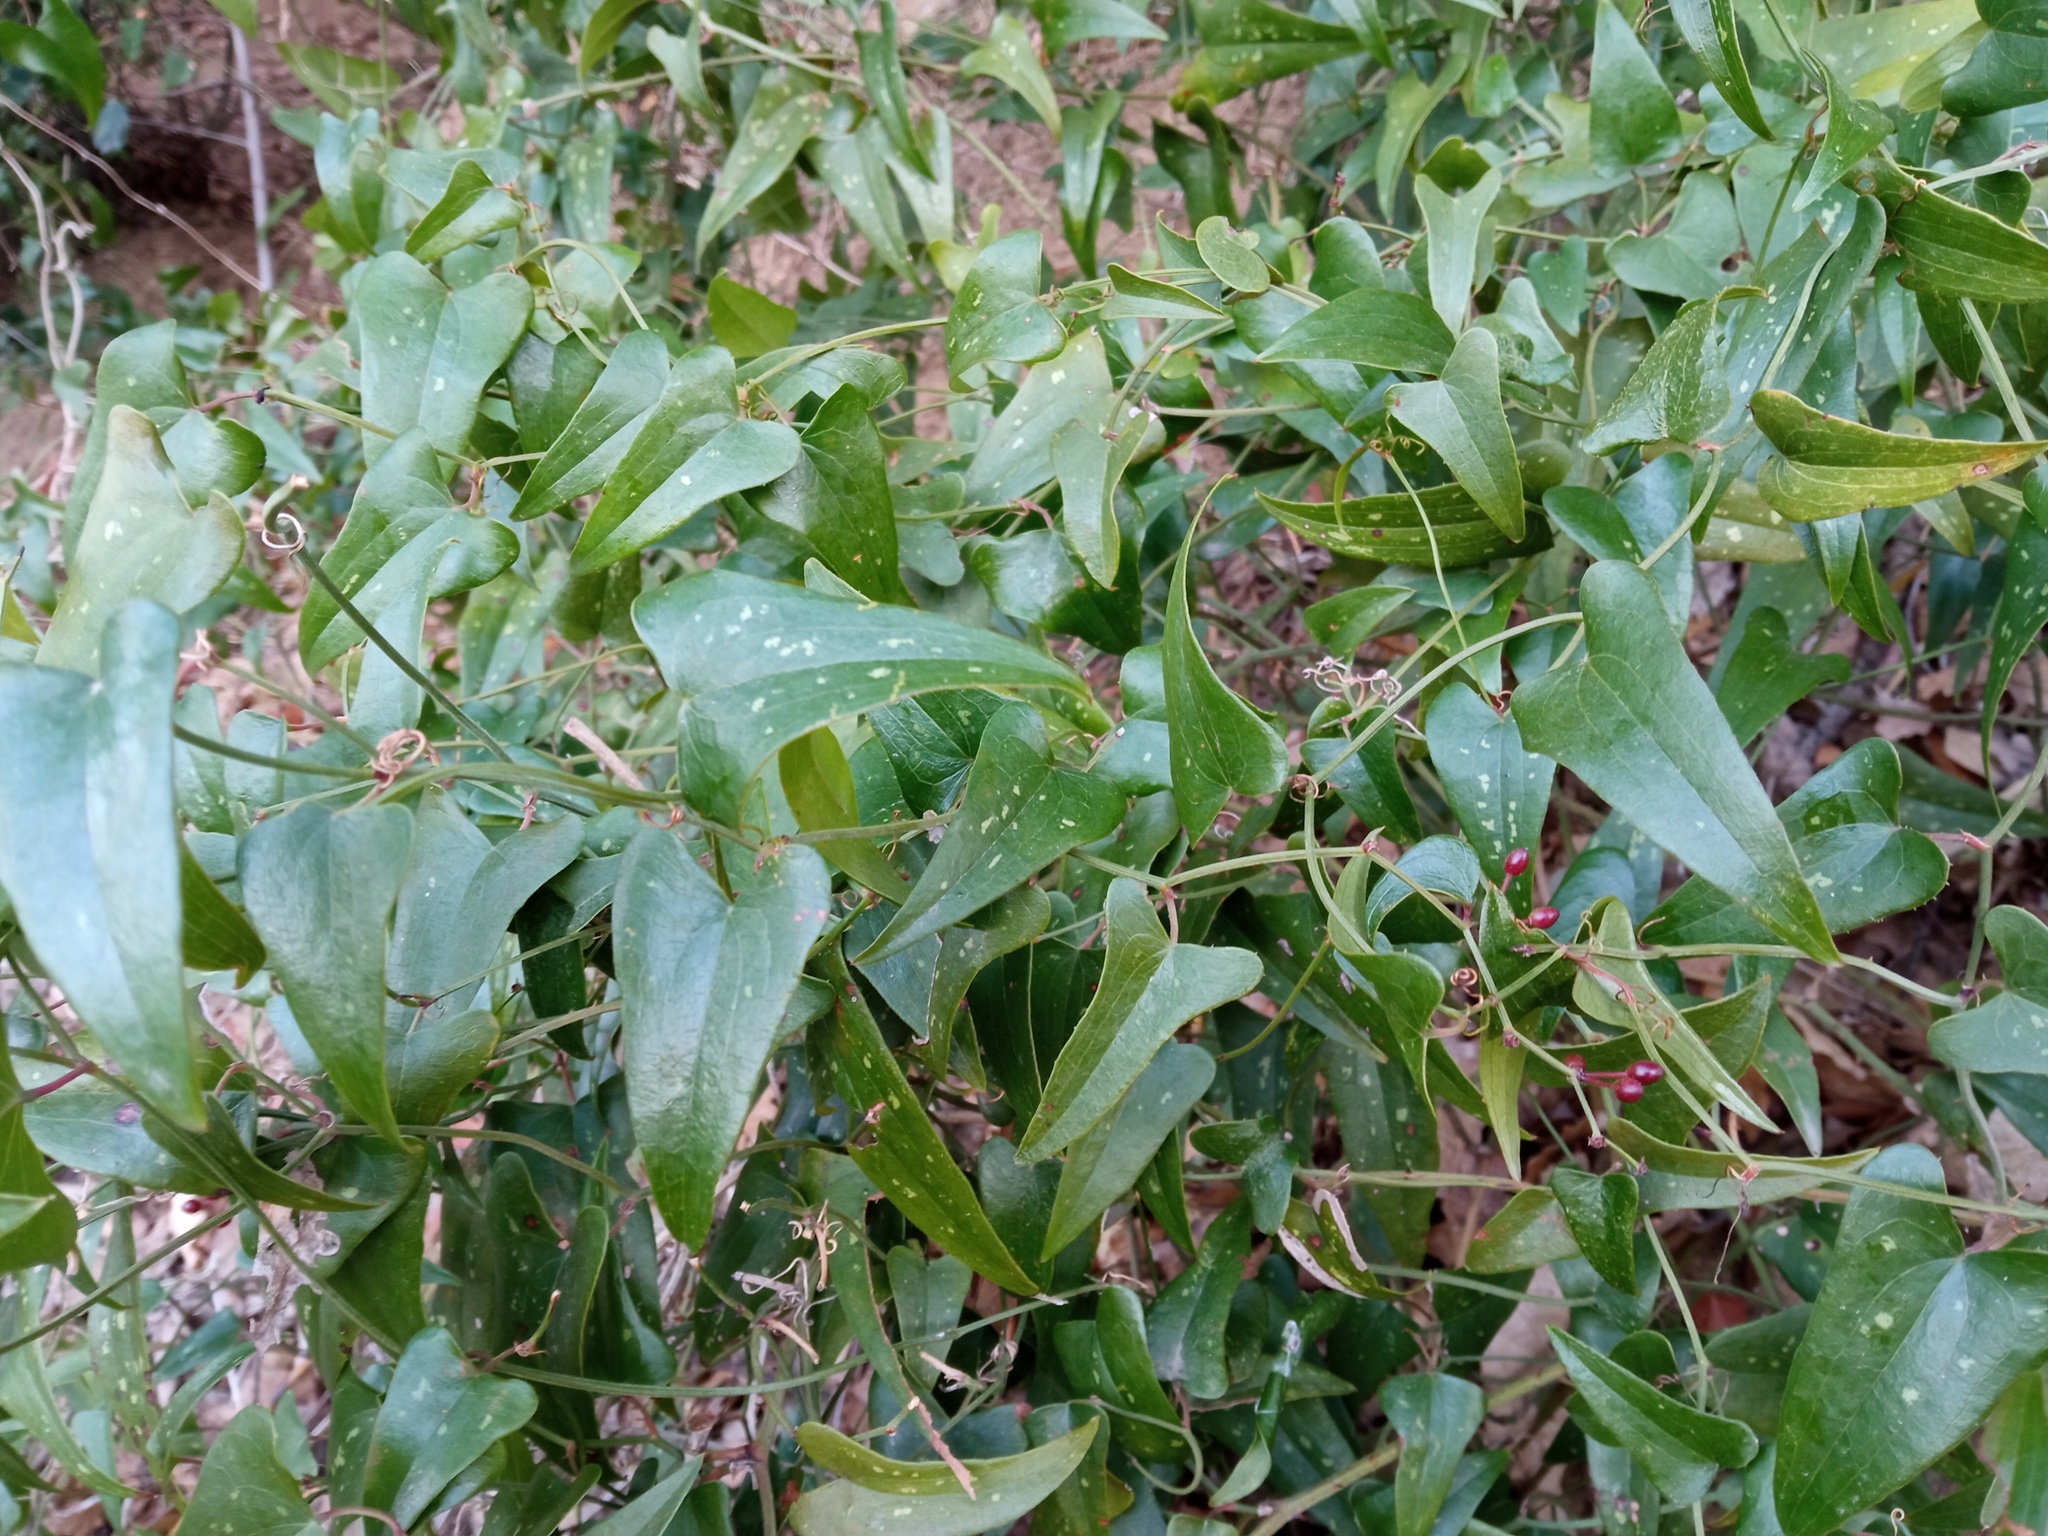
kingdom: Plantae
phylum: Tracheophyta
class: Liliopsida
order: Liliales
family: Smilacaceae
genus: Smilax
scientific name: Smilax aspera
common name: Common smilax
